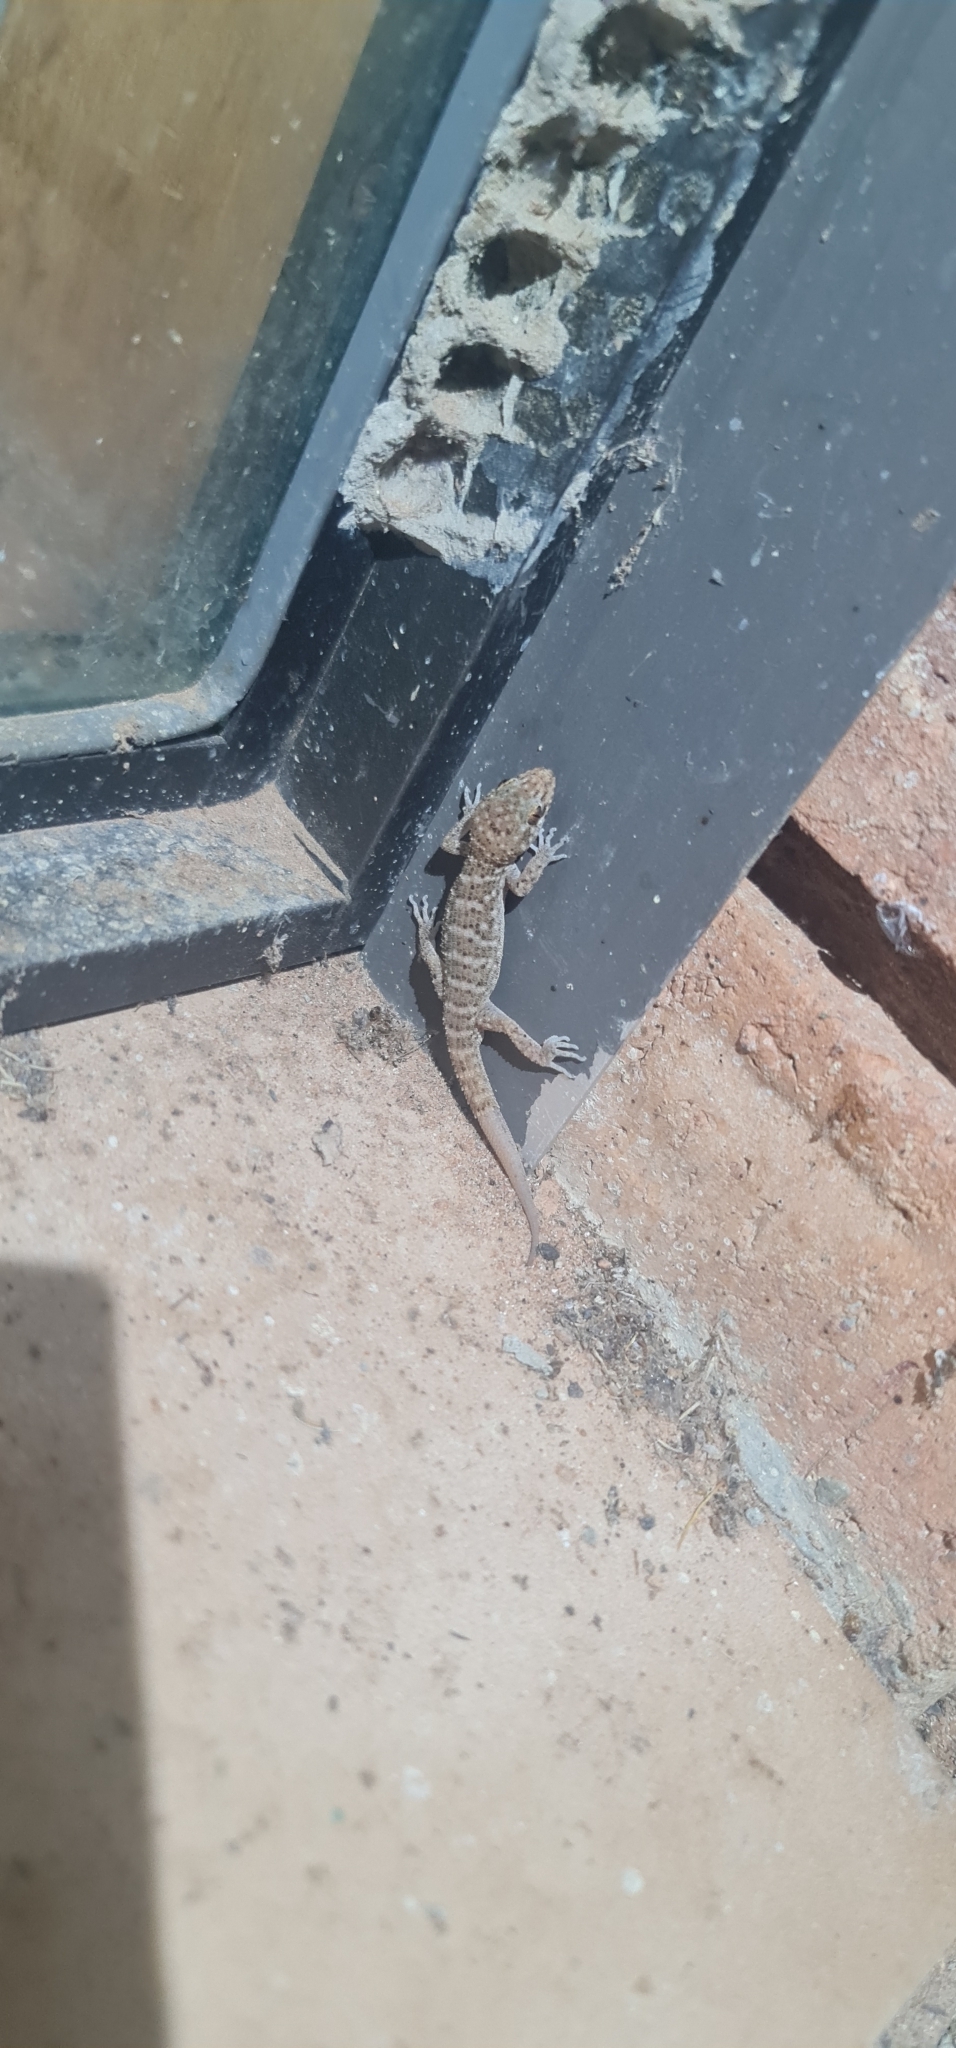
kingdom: Animalia
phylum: Chordata
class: Squamata
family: Gekkonidae
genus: Heteronotia
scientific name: Heteronotia binoei
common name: Bynoe's gecko
